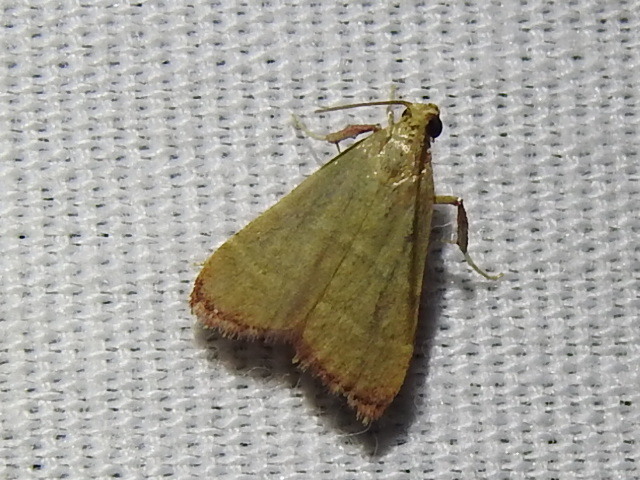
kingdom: Animalia
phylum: Arthropoda
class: Insecta
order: Lepidoptera
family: Pyralidae
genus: Arta
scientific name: Arta olivalis
